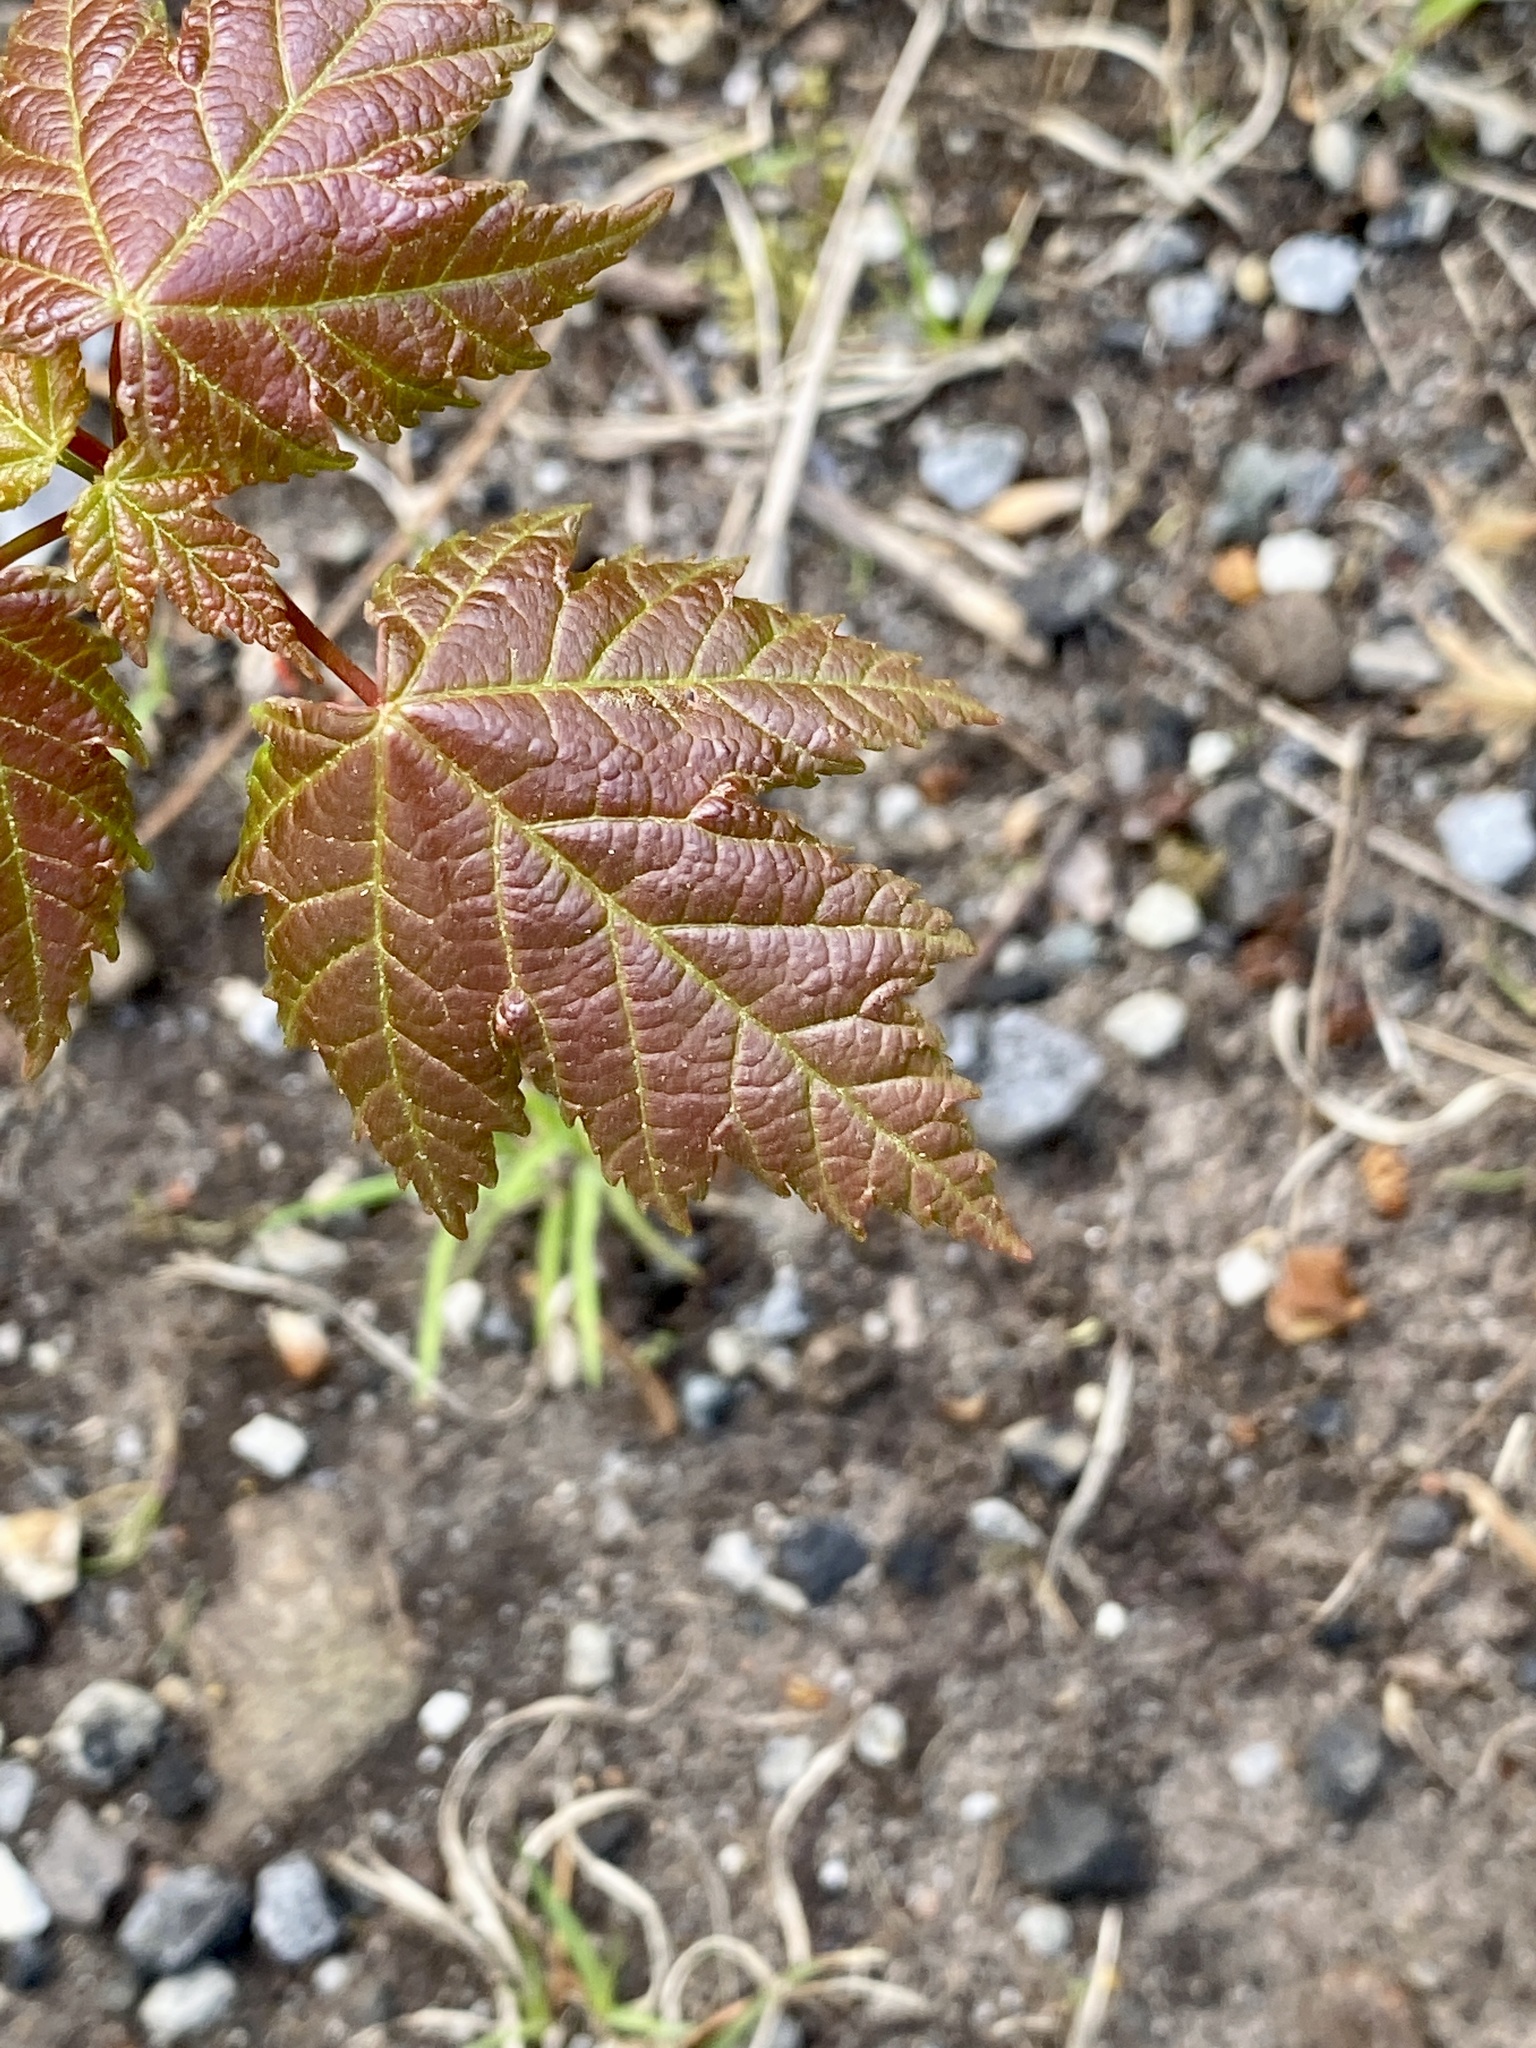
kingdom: Plantae
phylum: Tracheophyta
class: Magnoliopsida
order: Sapindales
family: Sapindaceae
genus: Acer
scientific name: Acer rubrum
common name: Red maple
